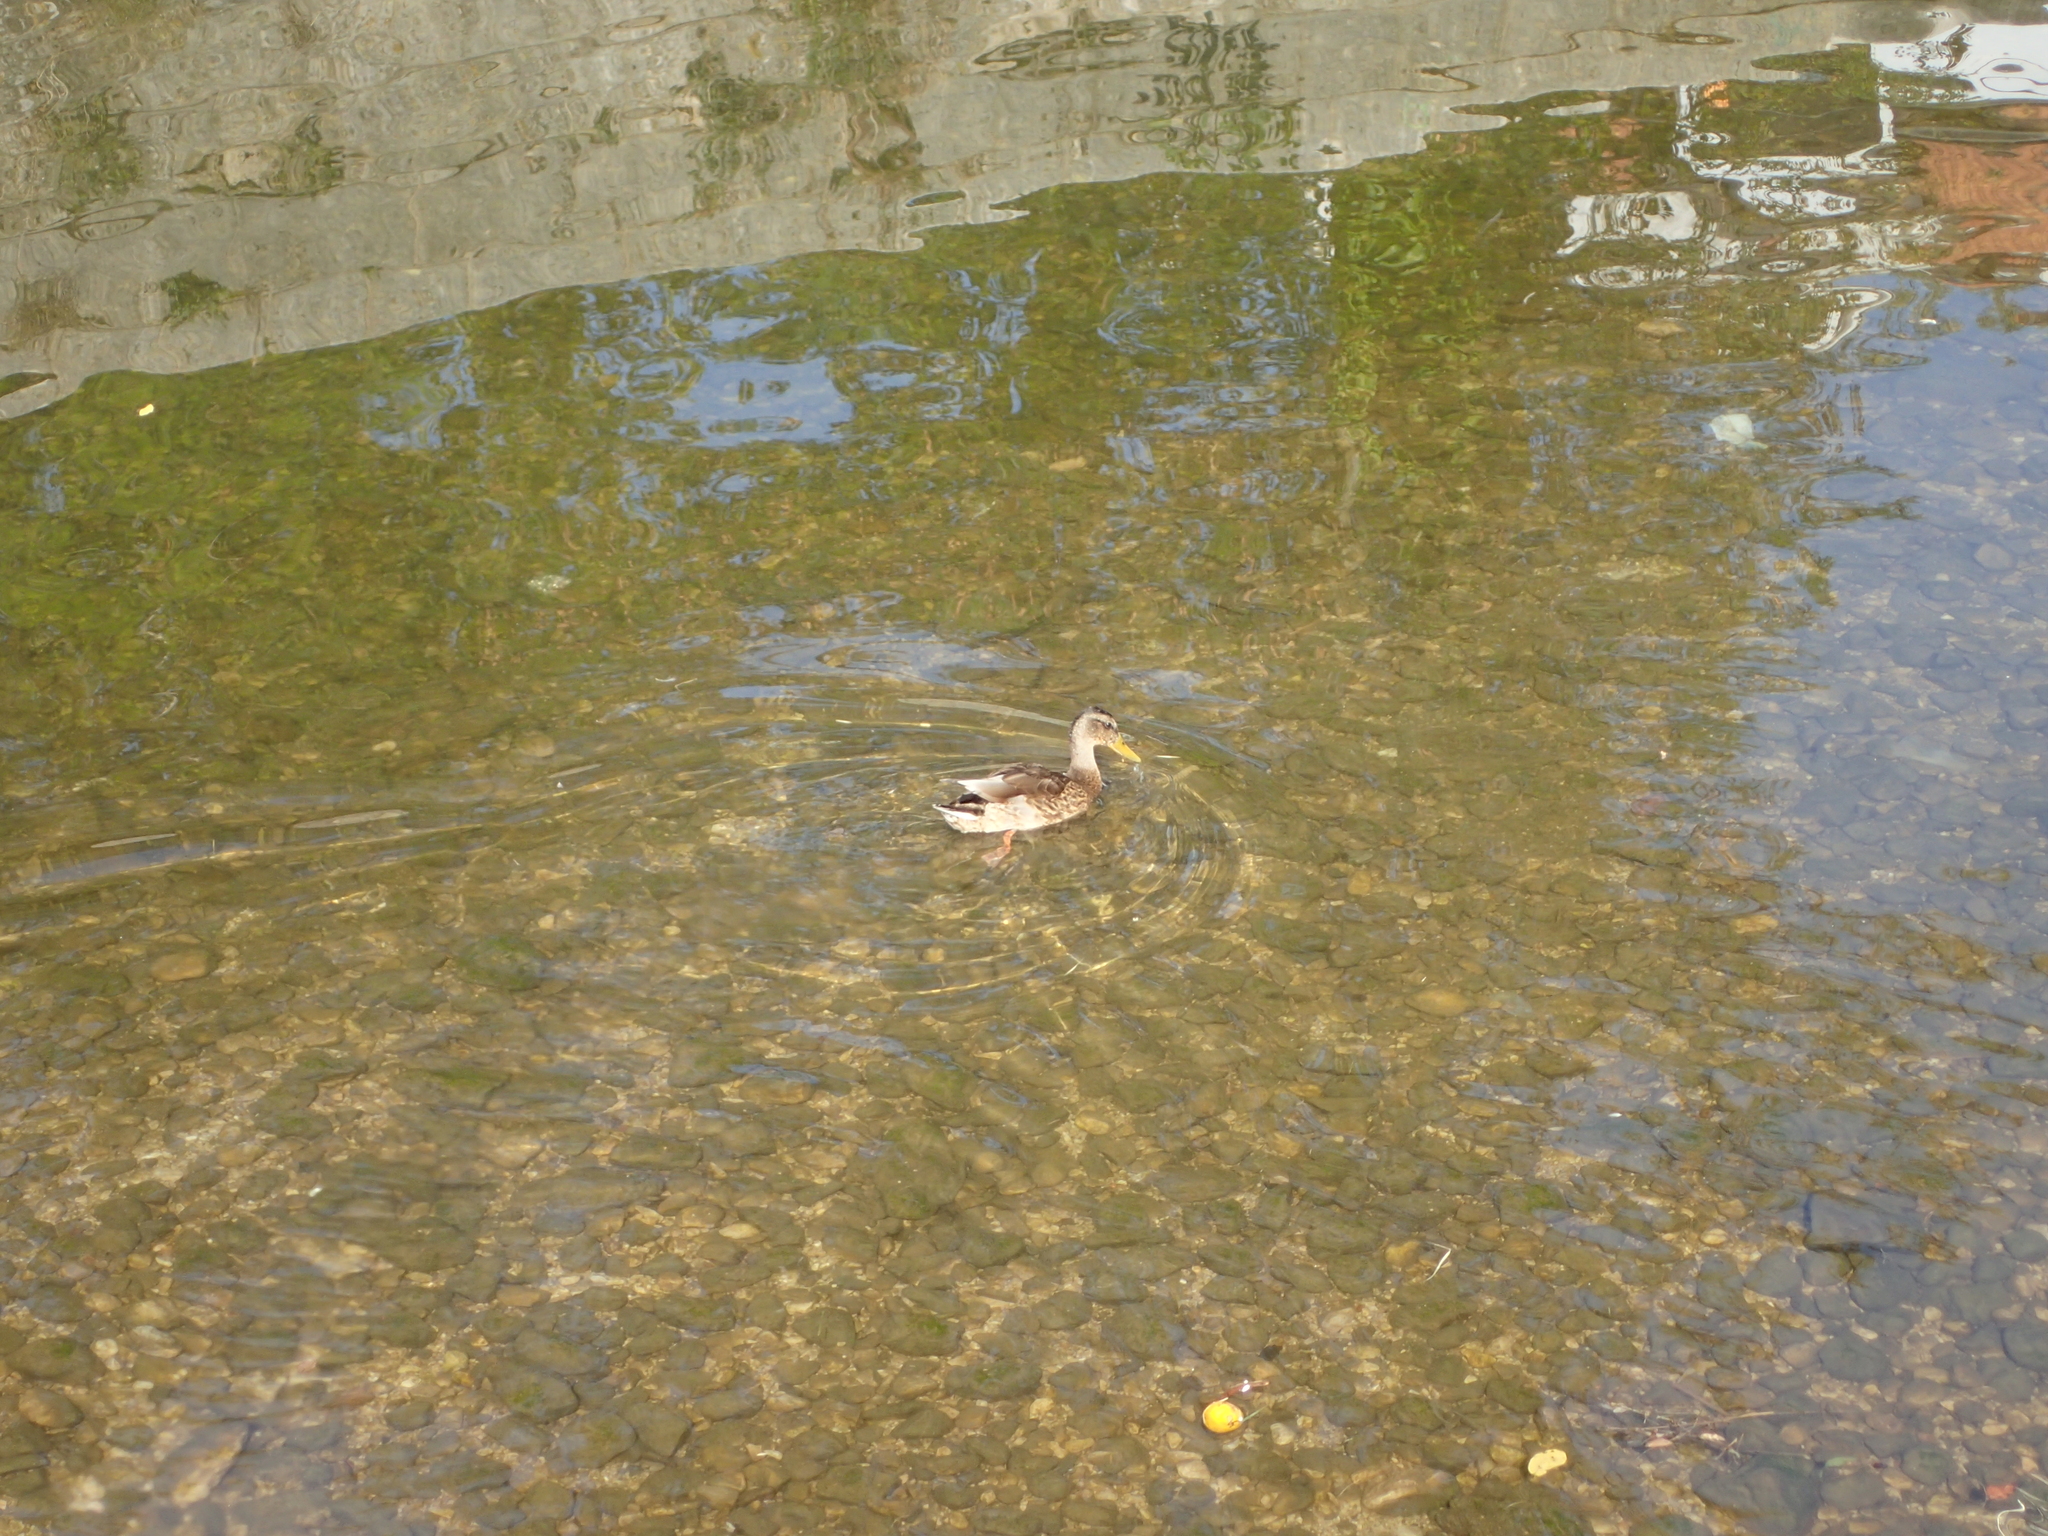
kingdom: Animalia
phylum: Chordata
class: Aves
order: Anseriformes
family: Anatidae
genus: Anas
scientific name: Anas platyrhynchos
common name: Mallard
